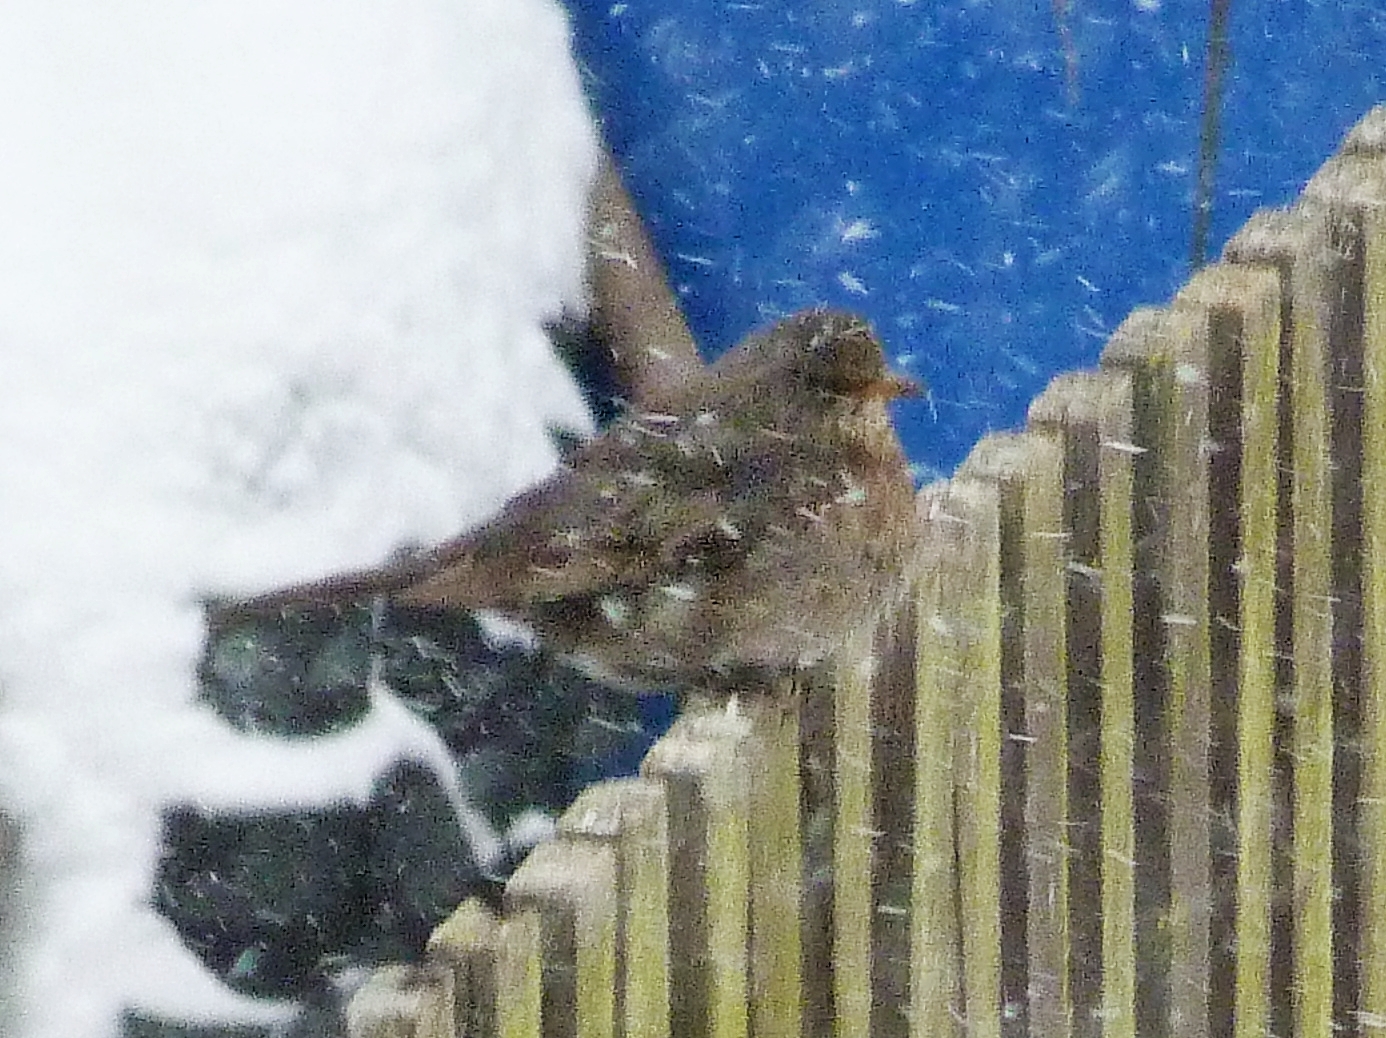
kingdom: Animalia
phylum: Chordata
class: Aves
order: Passeriformes
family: Turdidae
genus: Turdus
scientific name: Turdus merula
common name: Common blackbird
